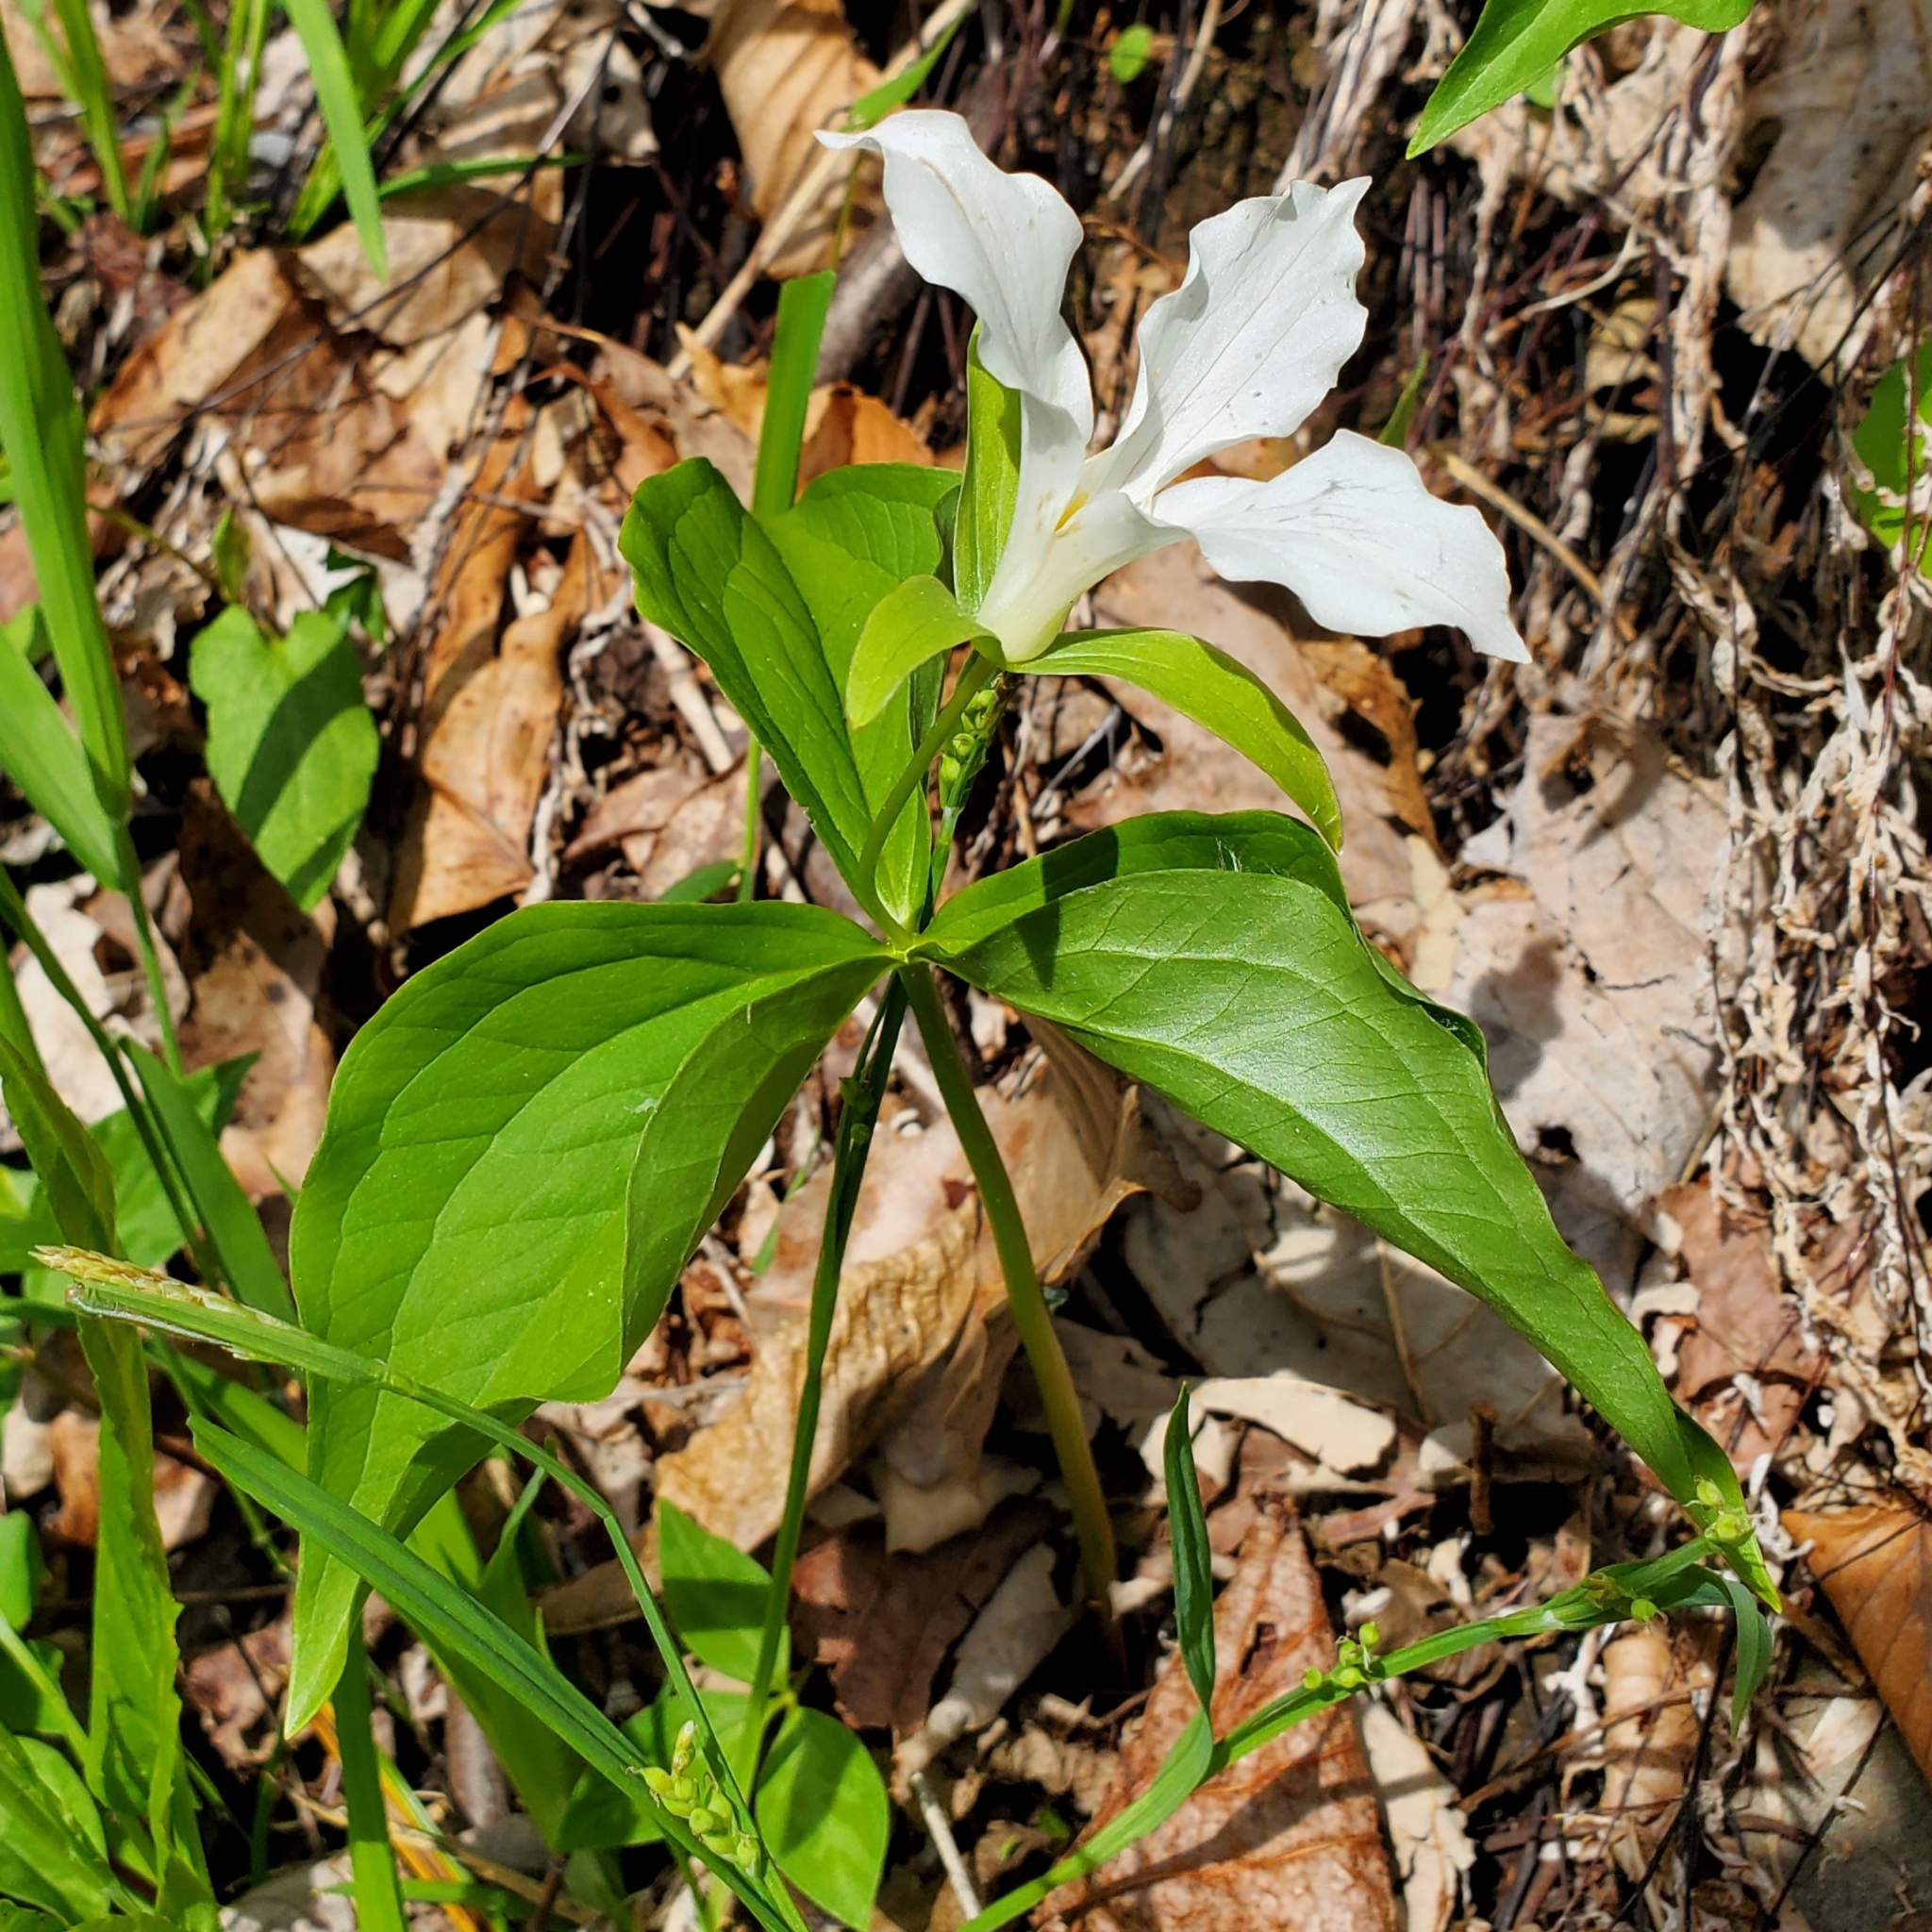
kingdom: Plantae
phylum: Tracheophyta
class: Liliopsida
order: Liliales
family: Melanthiaceae
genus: Trillium
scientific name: Trillium grandiflorum
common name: Great white trillium
